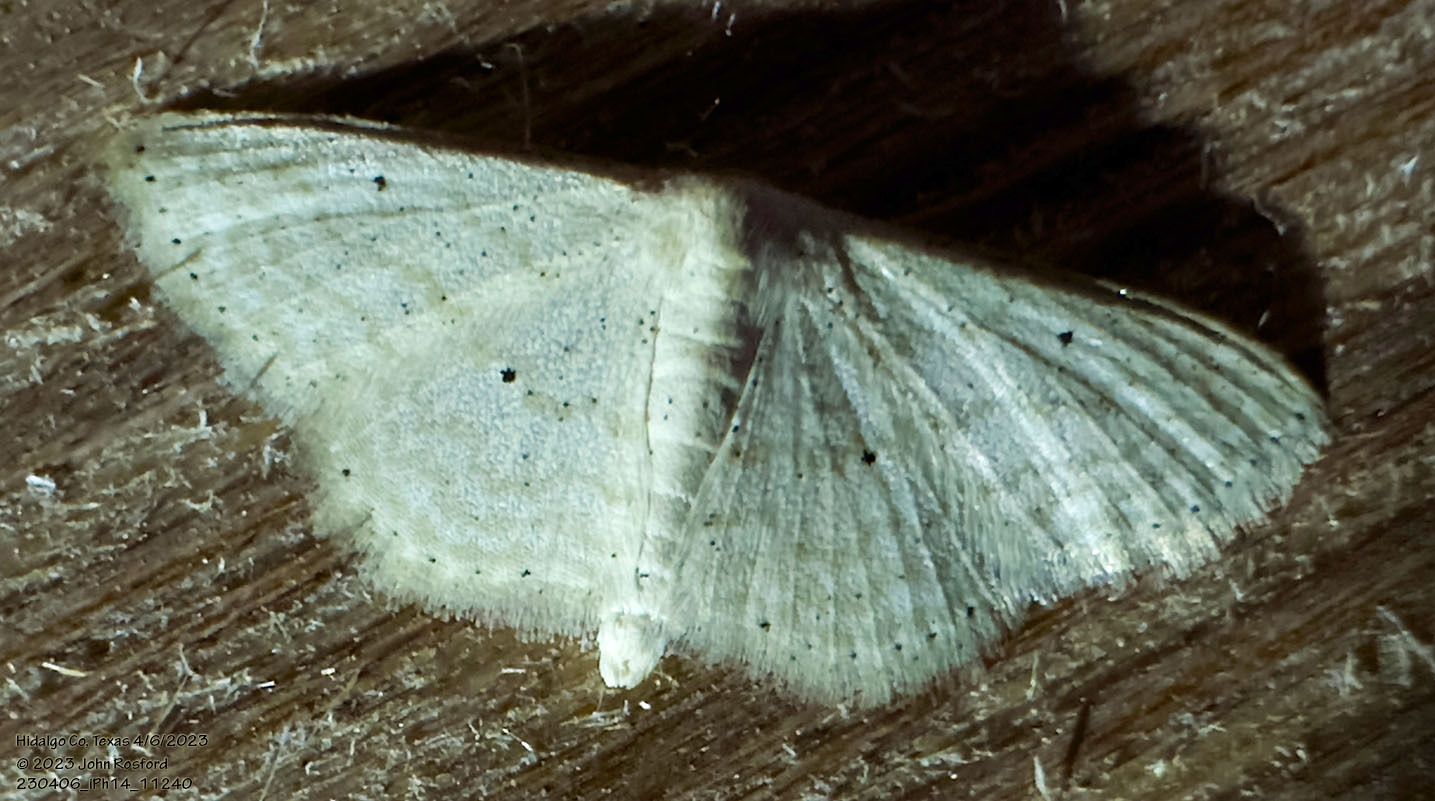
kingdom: Animalia
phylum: Arthropoda
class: Insecta
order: Lepidoptera
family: Geometridae
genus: Scopula
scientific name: Scopula benitaria
